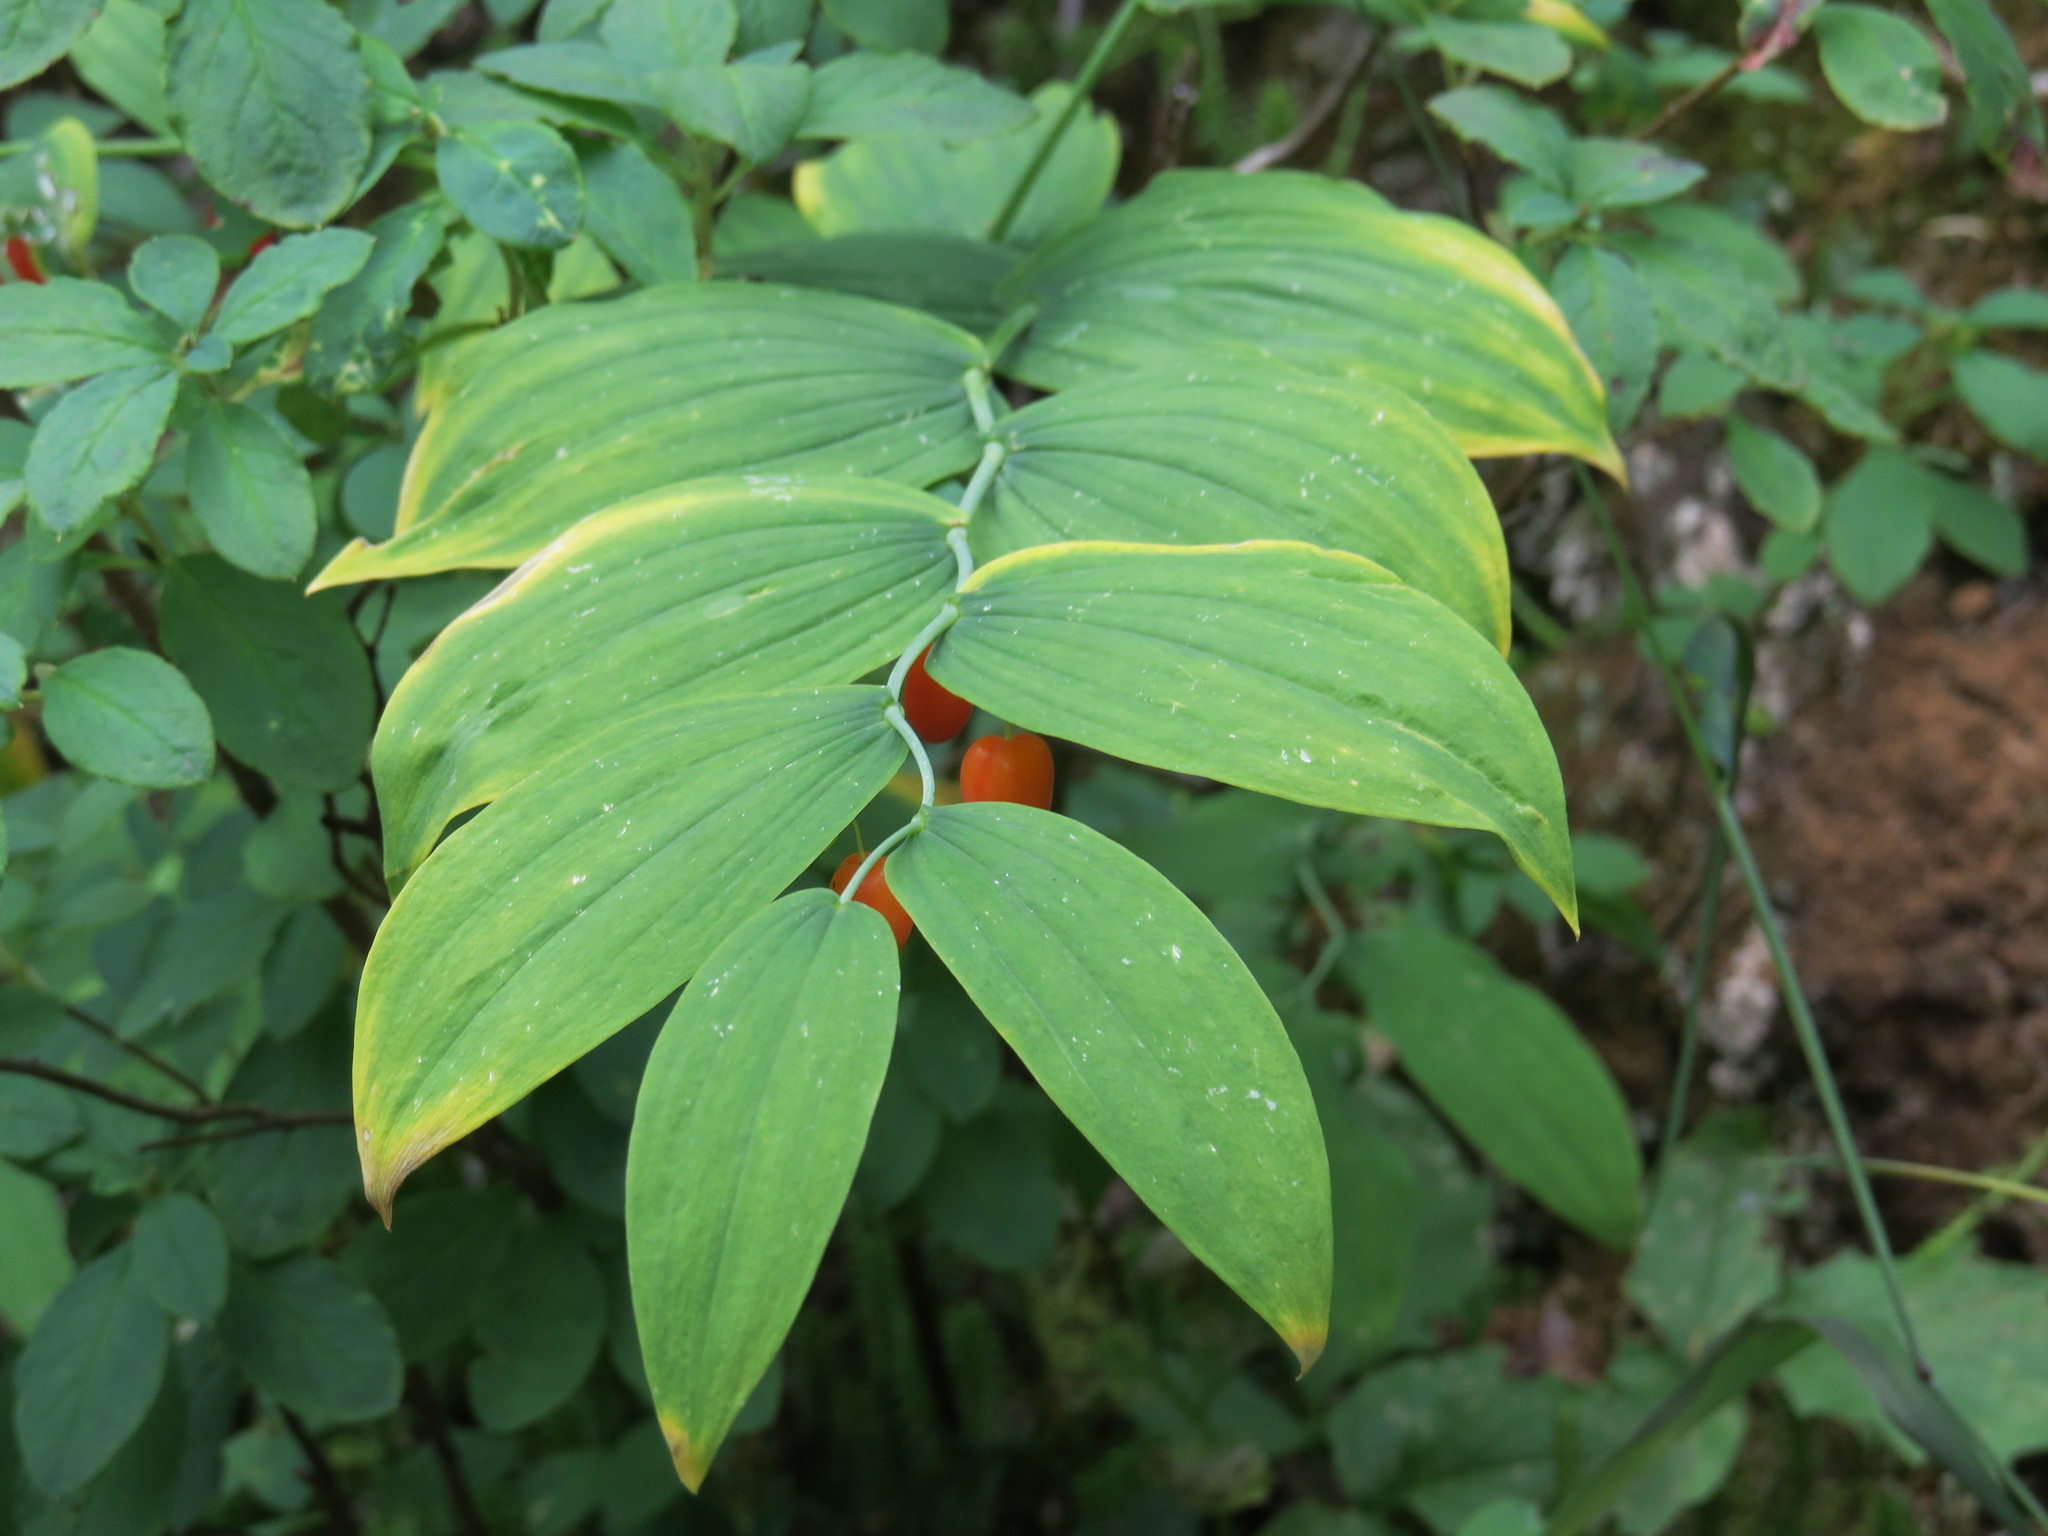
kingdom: Plantae
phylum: Tracheophyta
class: Liliopsida
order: Liliales
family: Liliaceae
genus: Streptopus
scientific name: Streptopus amplexifolius
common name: Clasp twisted stalk
